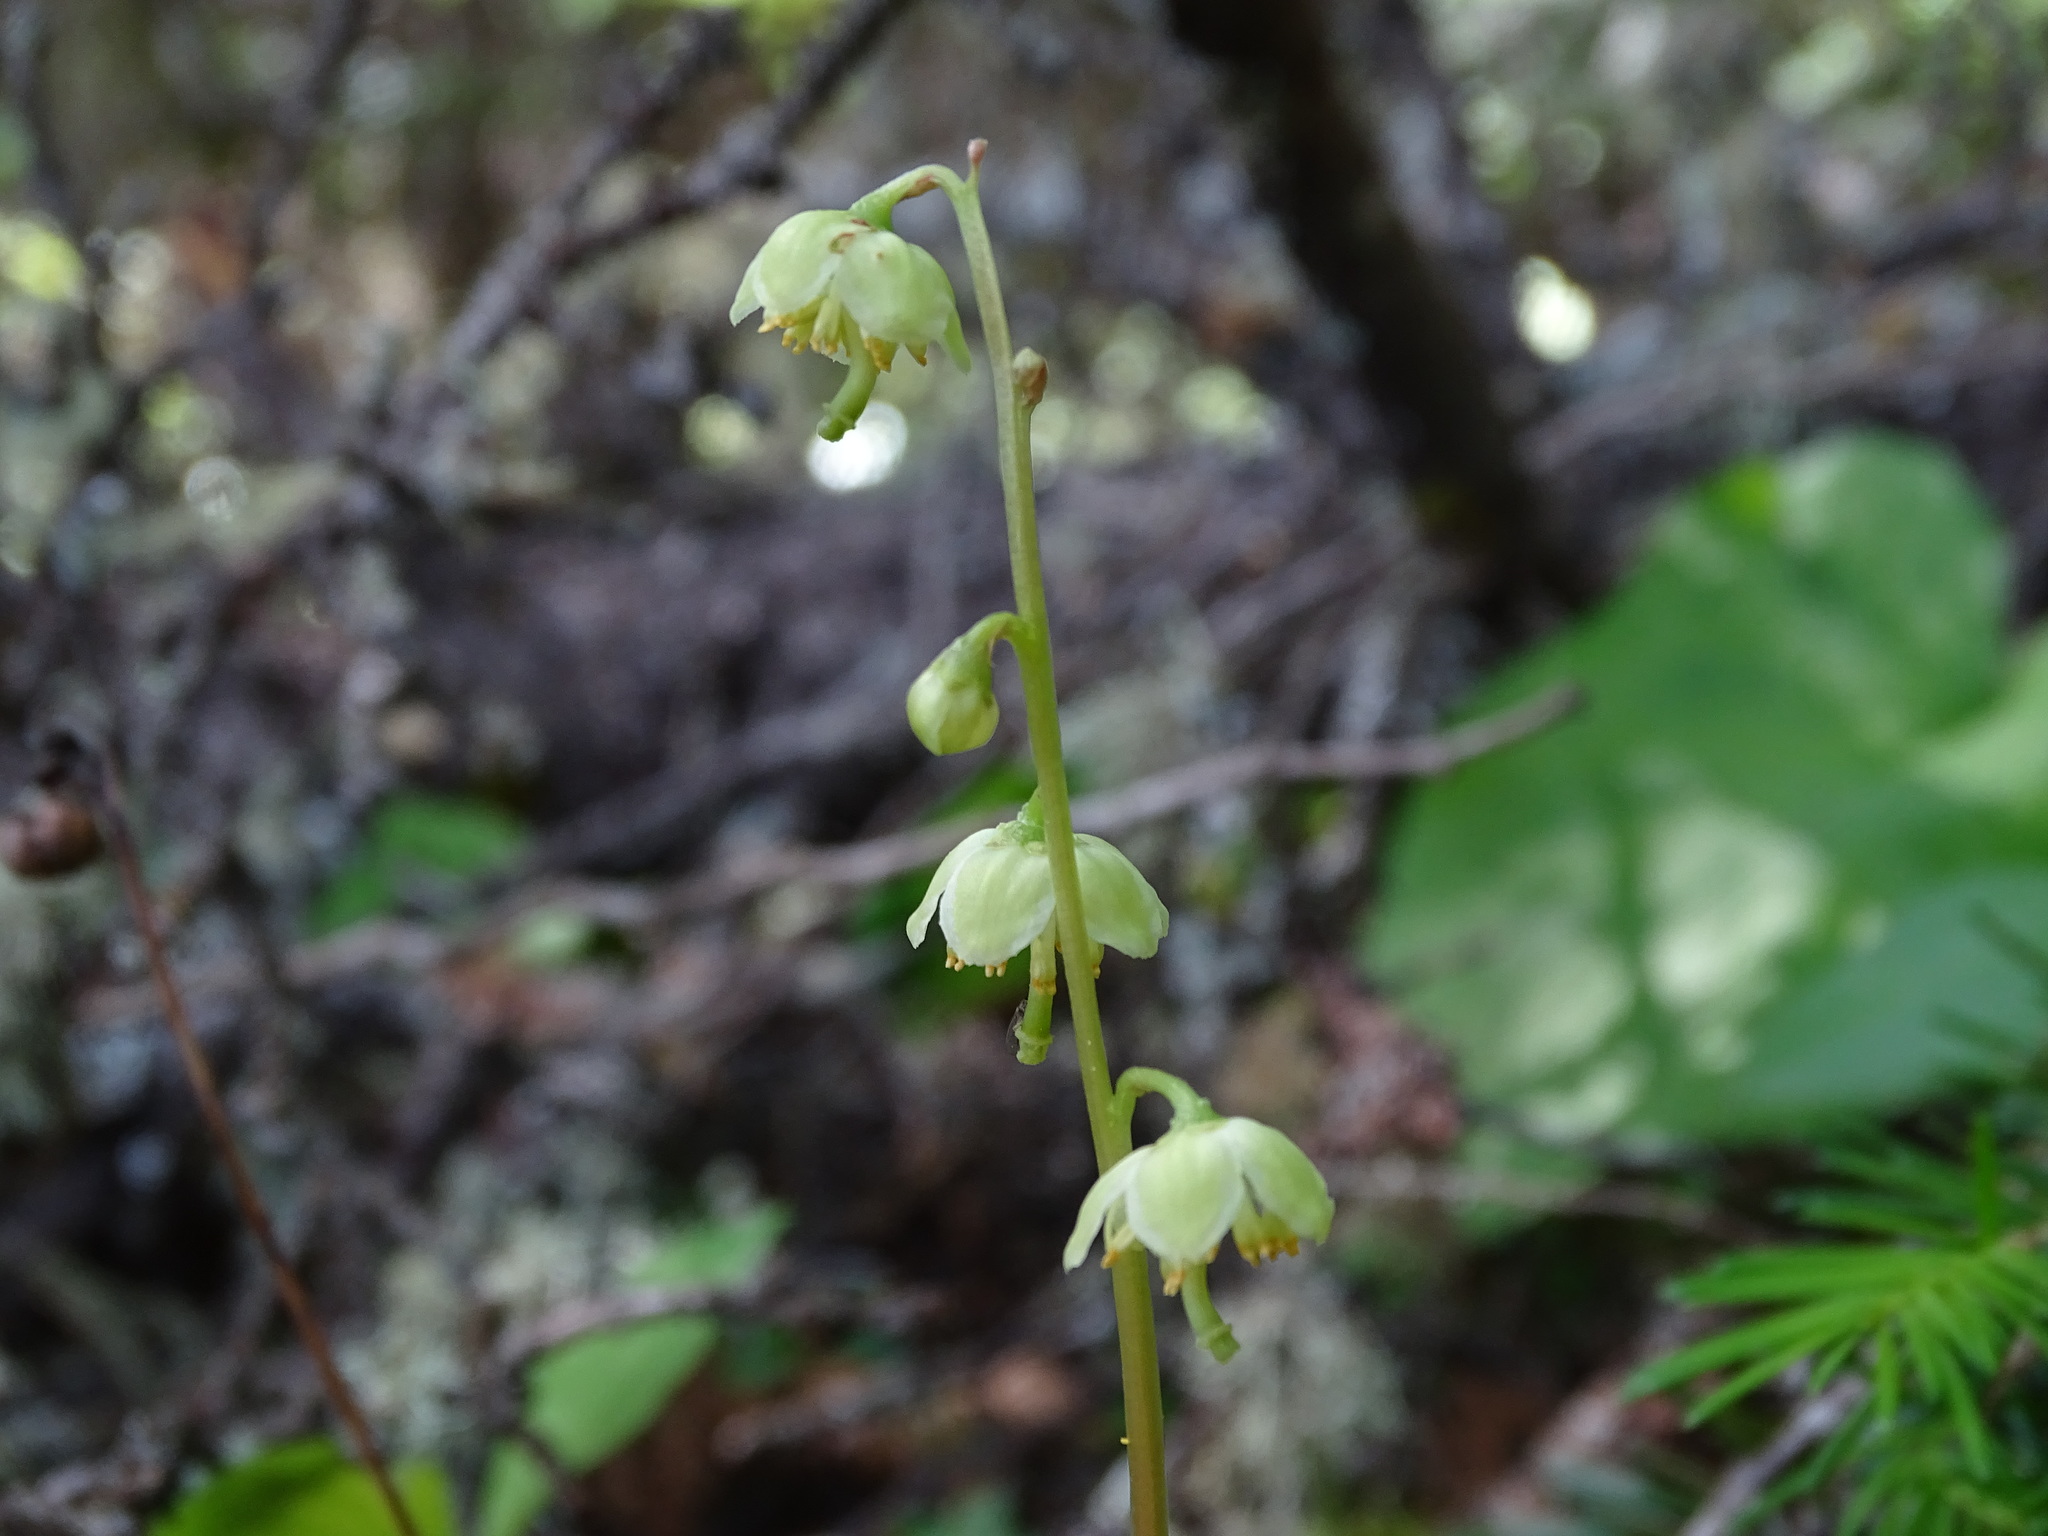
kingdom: Plantae
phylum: Tracheophyta
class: Magnoliopsida
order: Ericales
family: Ericaceae
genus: Pyrola
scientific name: Pyrola chlorantha
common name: Green wintergreen
